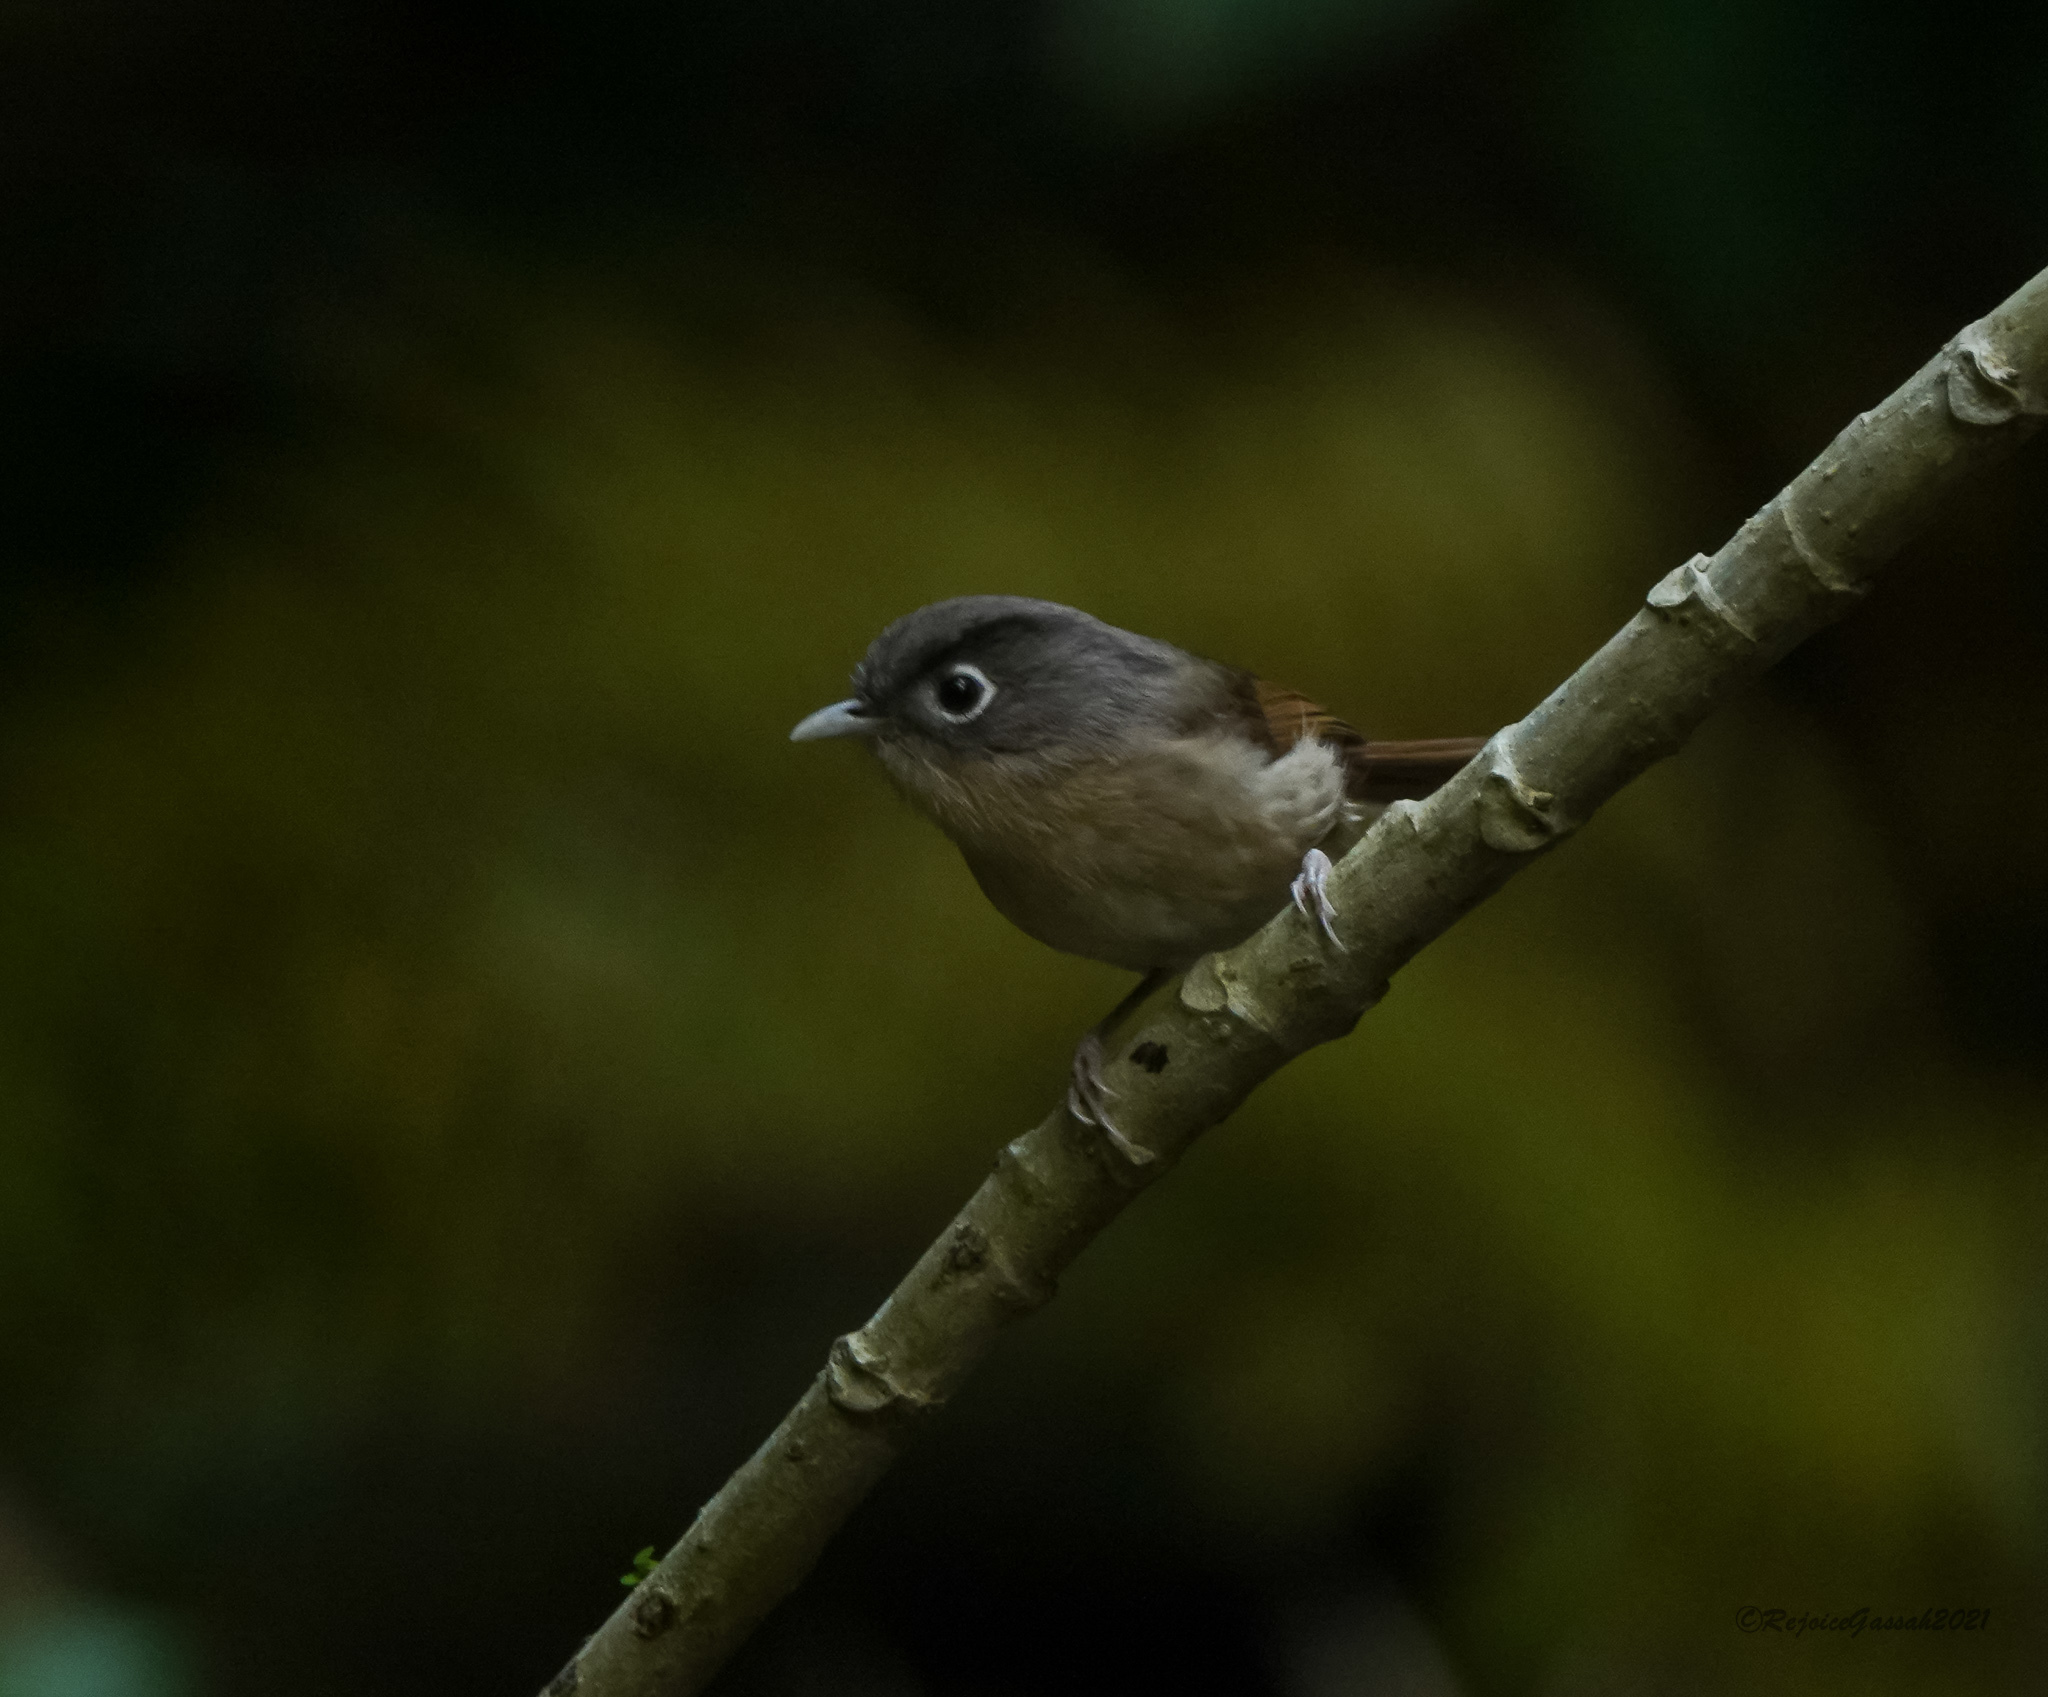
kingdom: Animalia
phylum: Chordata
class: Aves
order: Passeriformes
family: Pellorneidae
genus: Alcippe
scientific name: Alcippe nipalensis
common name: Nepal fulvetta
